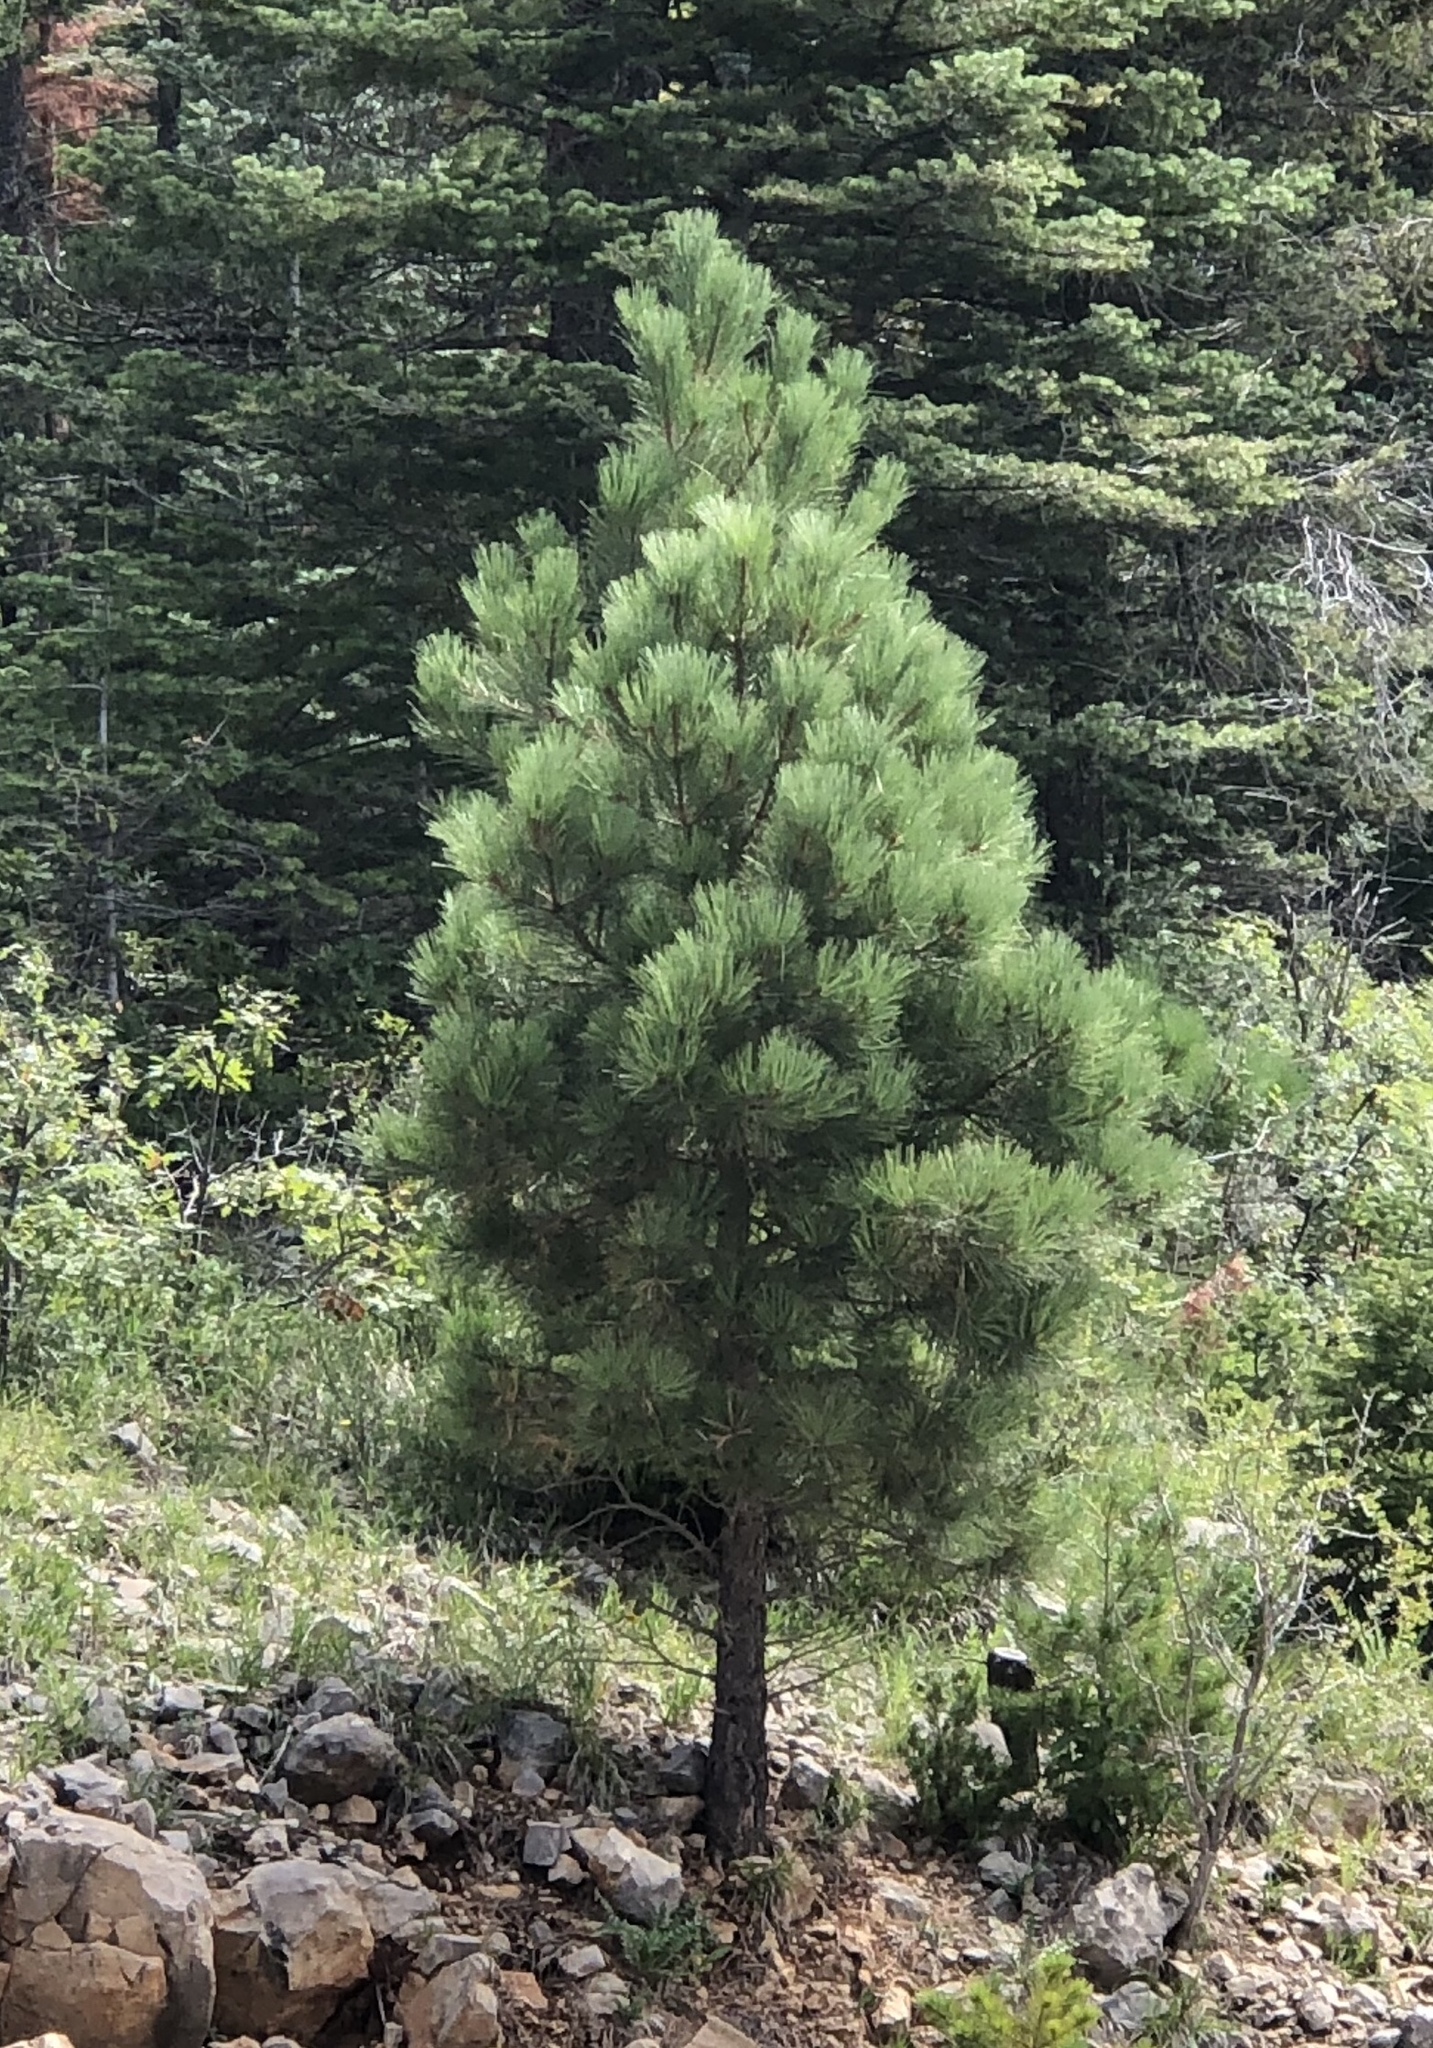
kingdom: Plantae
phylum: Tracheophyta
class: Pinopsida
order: Pinales
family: Pinaceae
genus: Pinus
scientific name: Pinus ponderosa
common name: Western yellow-pine
